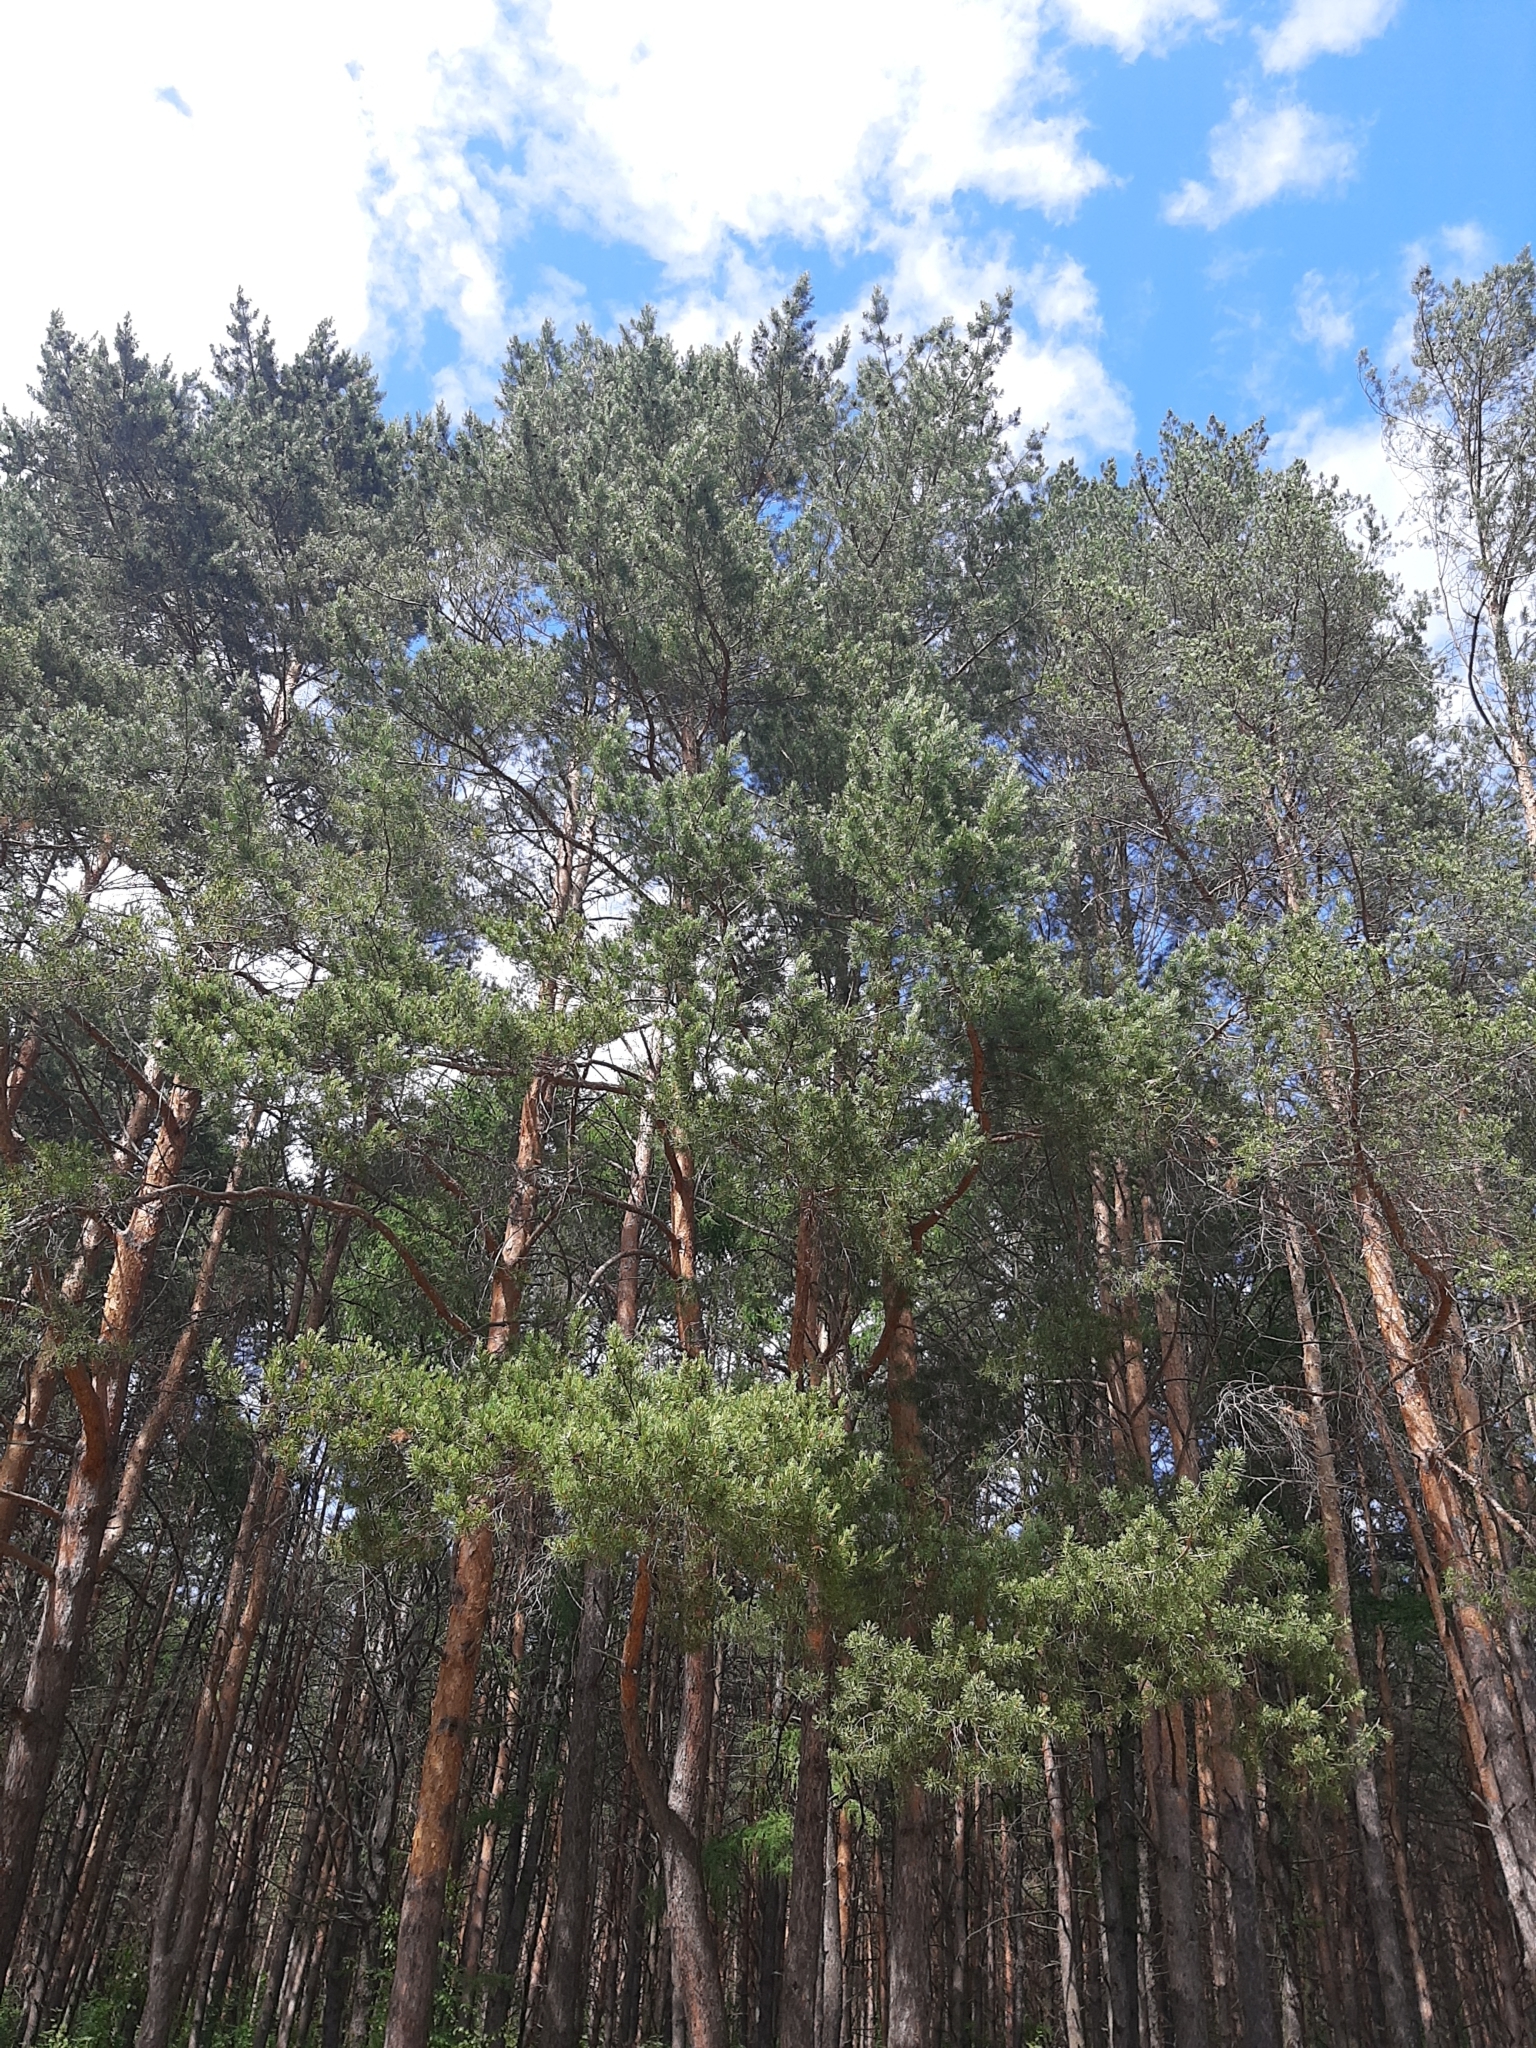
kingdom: Plantae
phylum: Tracheophyta
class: Pinopsida
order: Pinales
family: Pinaceae
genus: Pinus
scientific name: Pinus sylvestris
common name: Scots pine
